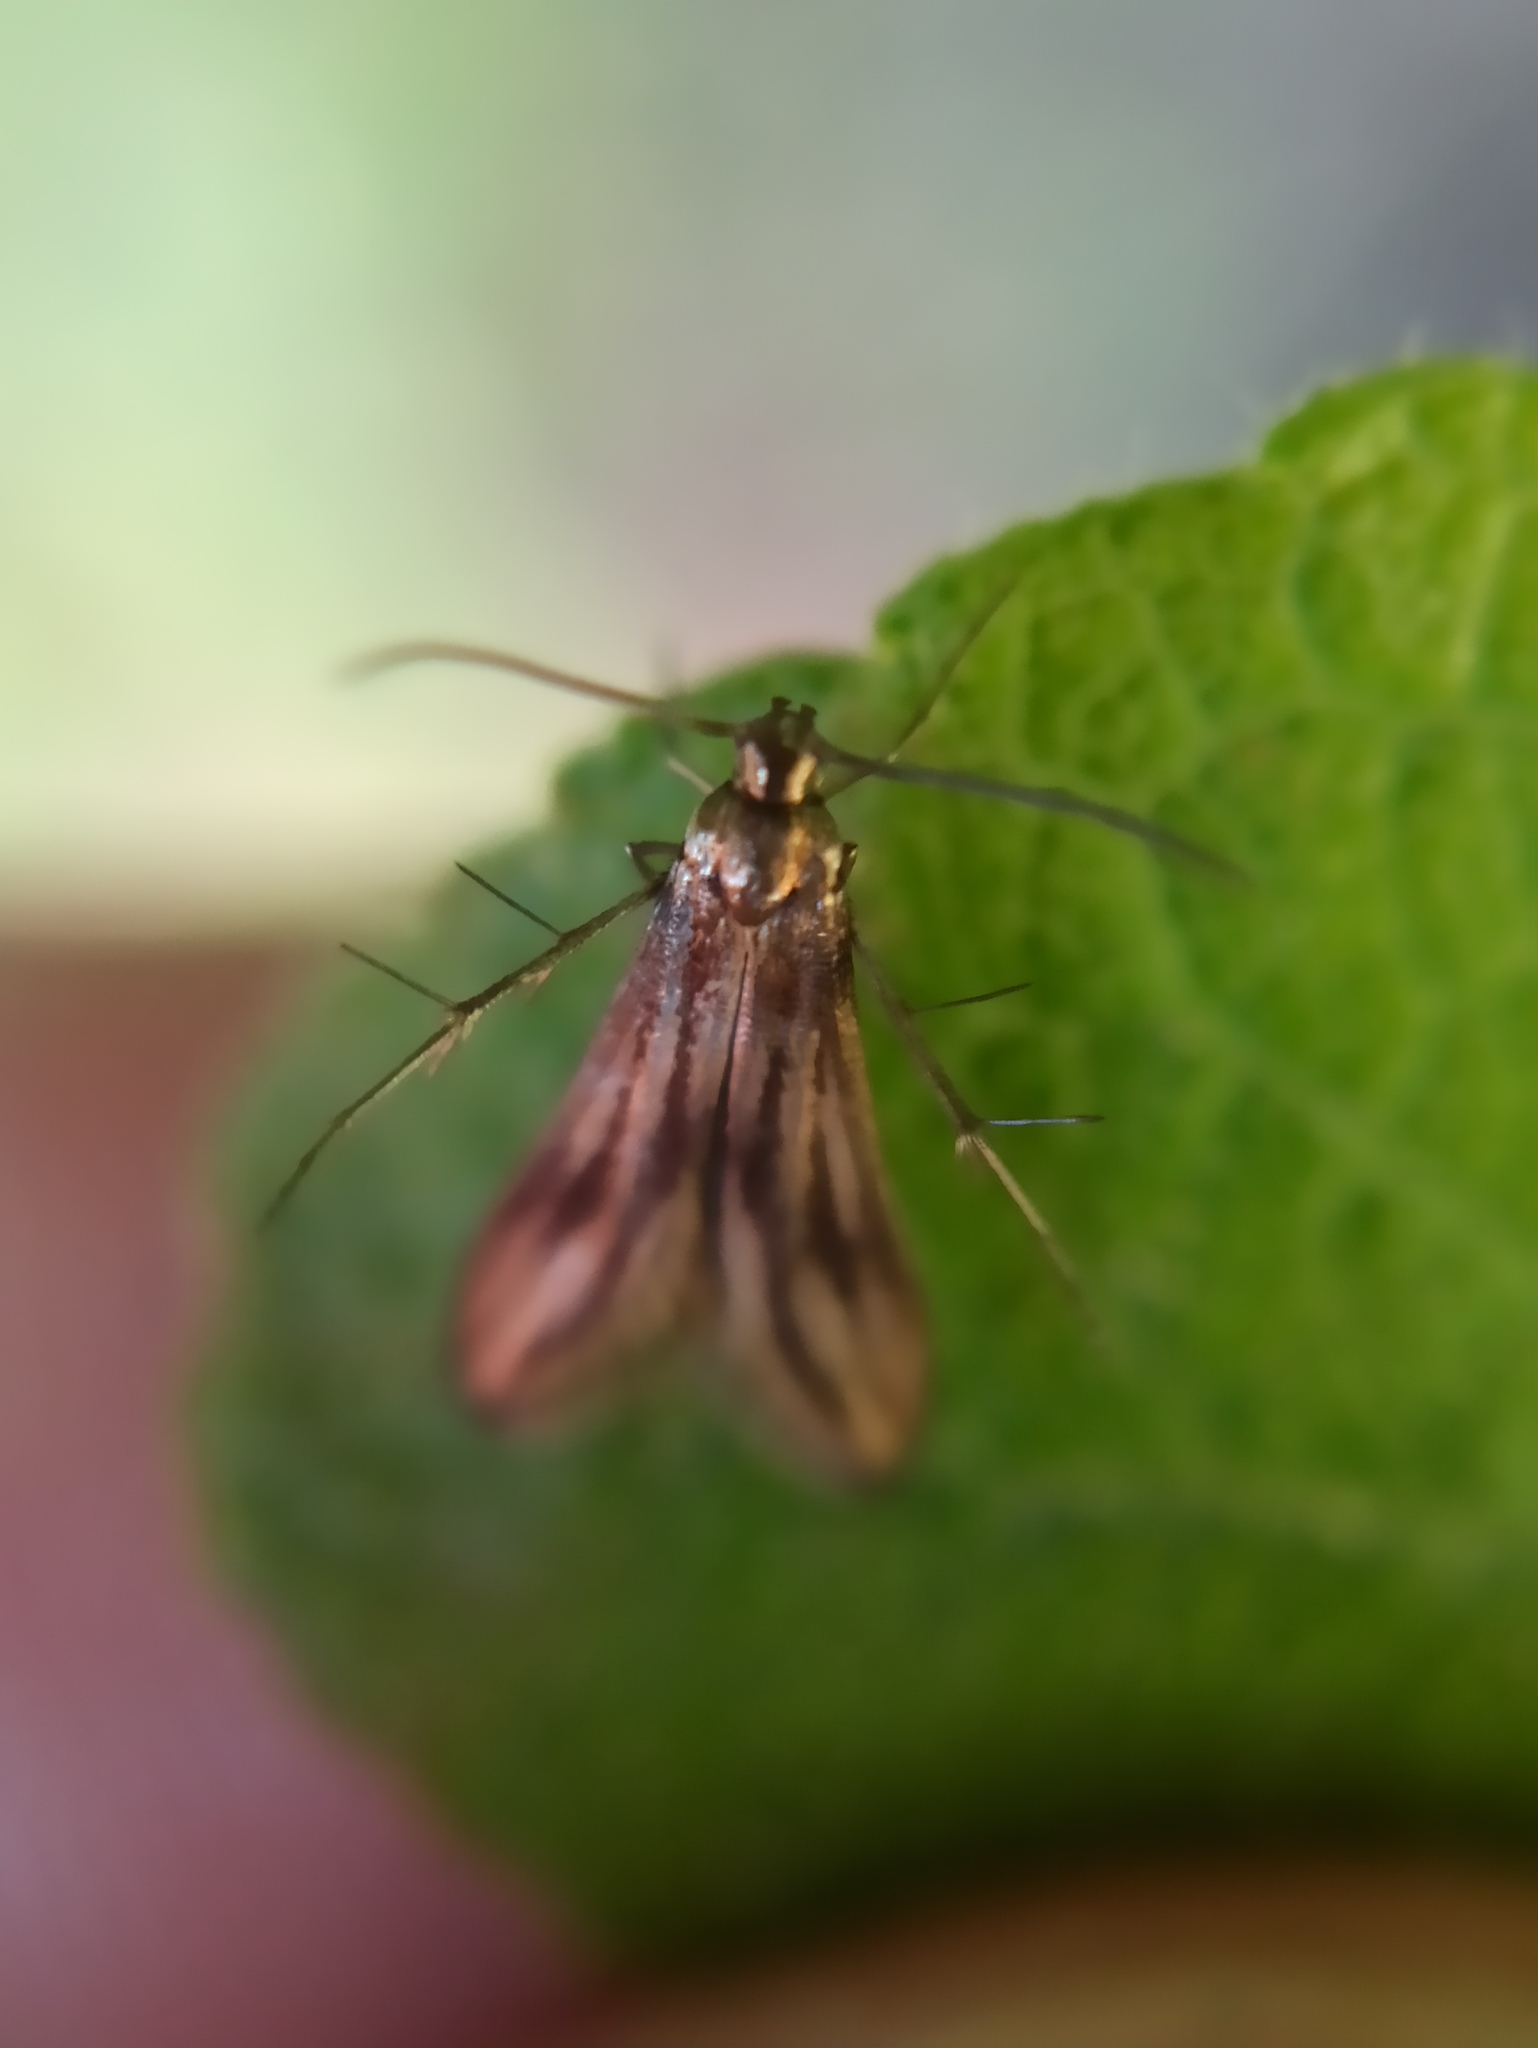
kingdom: Animalia
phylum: Arthropoda
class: Insecta
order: Lepidoptera
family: Schreckensteiniidae
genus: Schreckensteinia
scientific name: Schreckensteinia festaliella
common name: Blackberry skeletonizer
